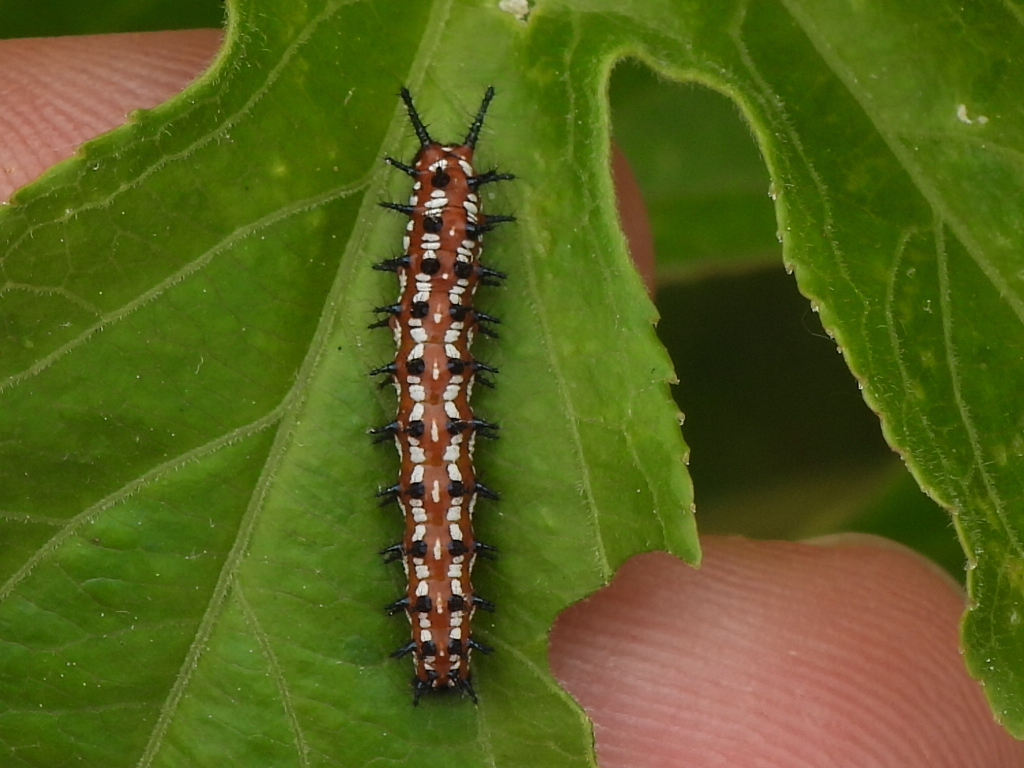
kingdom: Animalia
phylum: Arthropoda
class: Insecta
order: Lepidoptera
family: Nymphalidae
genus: Euptoieta
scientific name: Euptoieta claudia
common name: Variegated fritillary
